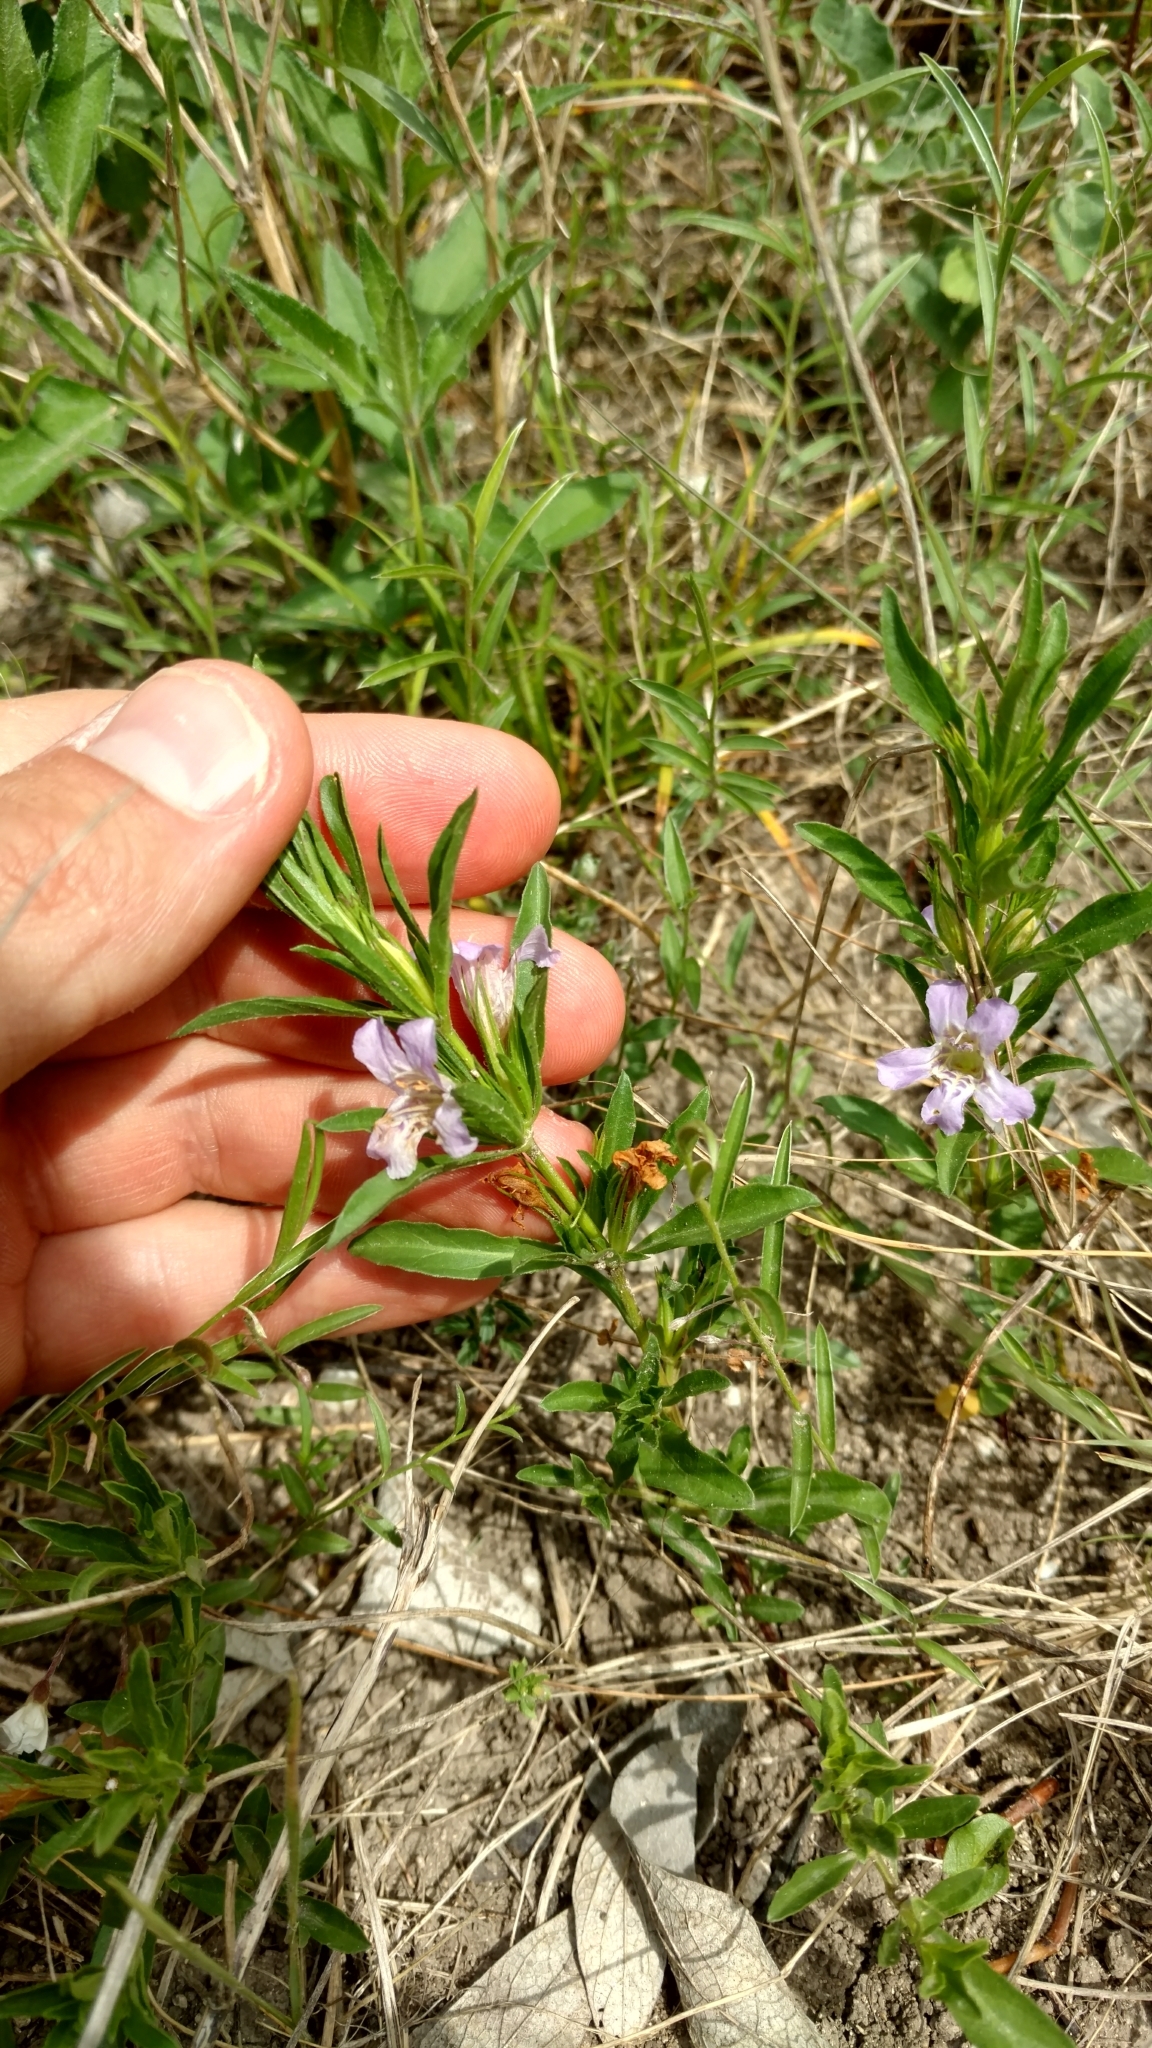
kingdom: Plantae
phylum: Tracheophyta
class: Magnoliopsida
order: Lamiales
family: Acanthaceae
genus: Dyschoriste
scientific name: Dyschoriste linearis
